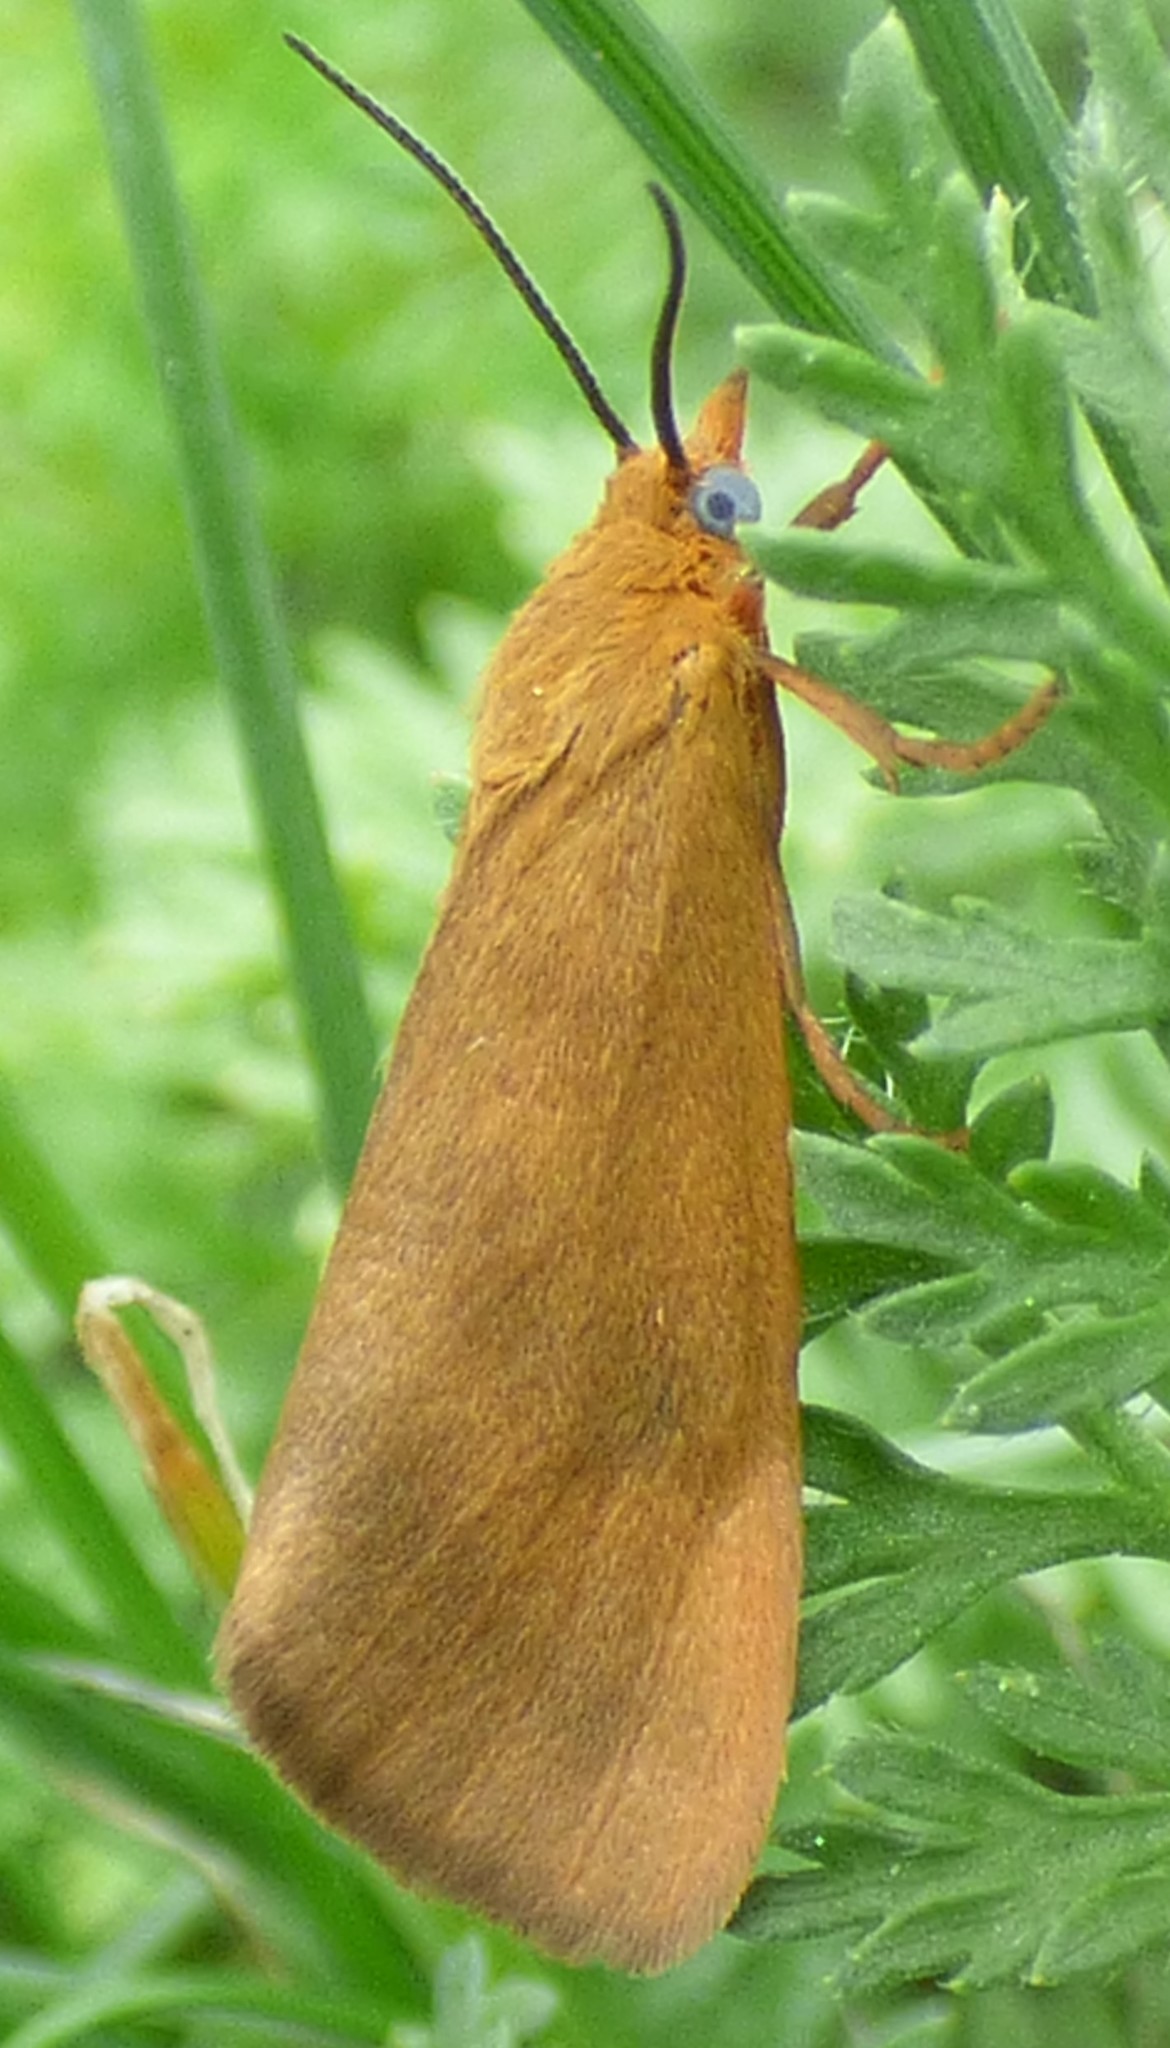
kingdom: Animalia
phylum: Arthropoda
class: Insecta
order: Lepidoptera
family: Erebidae
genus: Virbia
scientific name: Virbia aurantiaca
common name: Orange virbia moth
